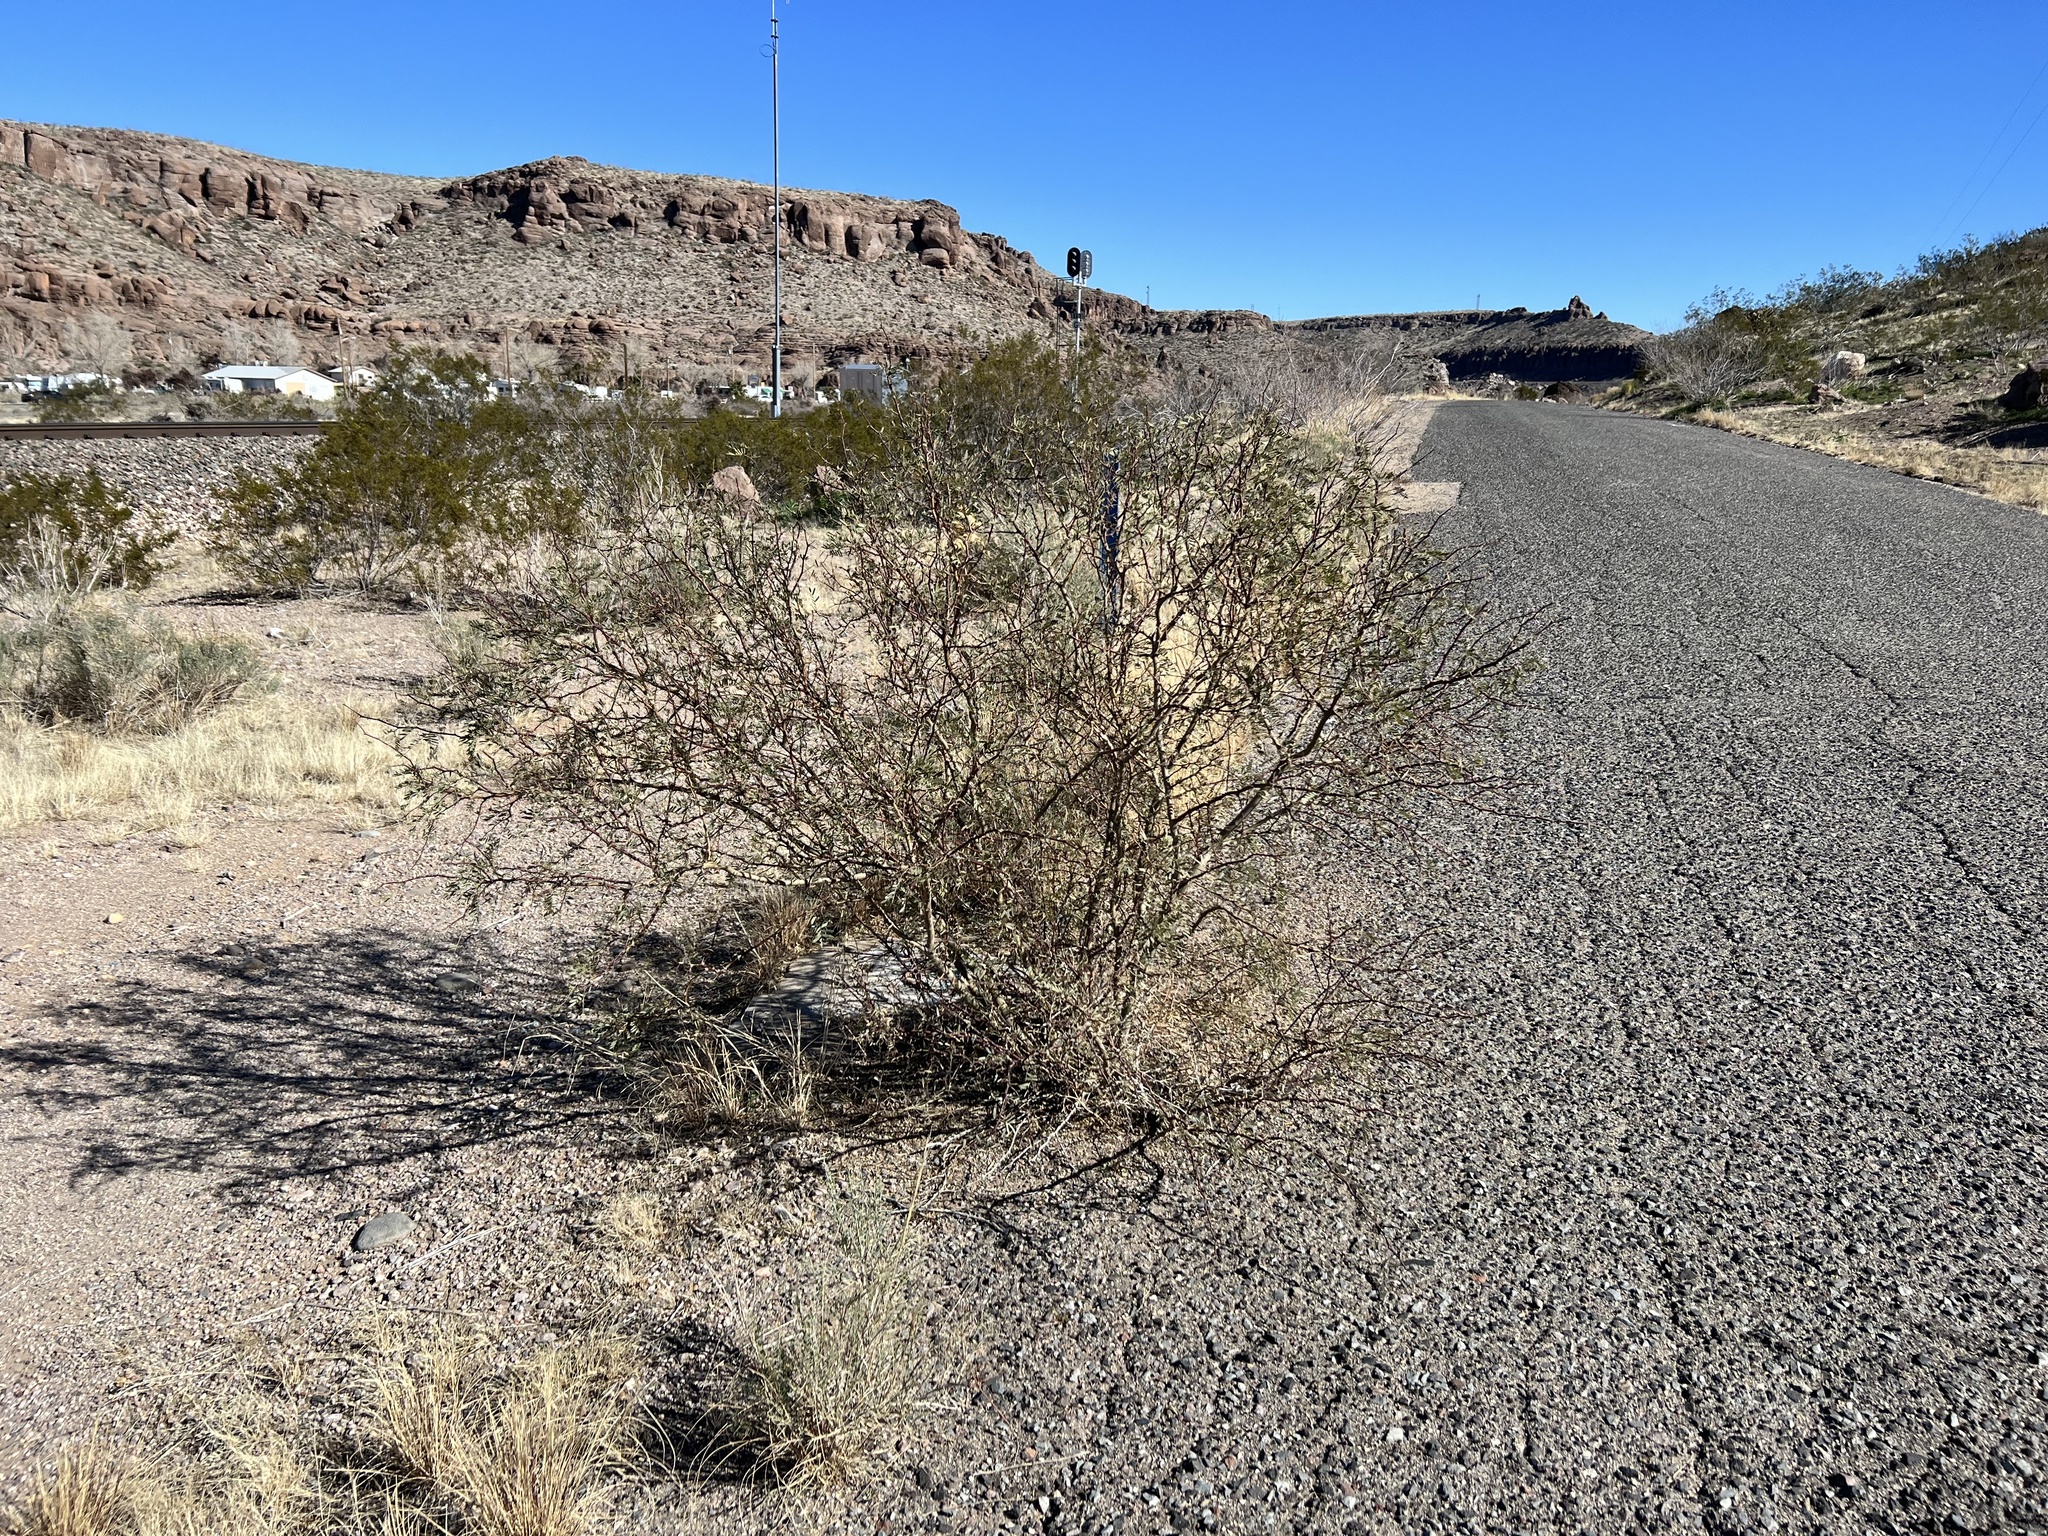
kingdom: Plantae
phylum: Tracheophyta
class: Magnoliopsida
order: Zygophyllales
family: Zygophyllaceae
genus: Larrea
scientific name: Larrea tridentata
